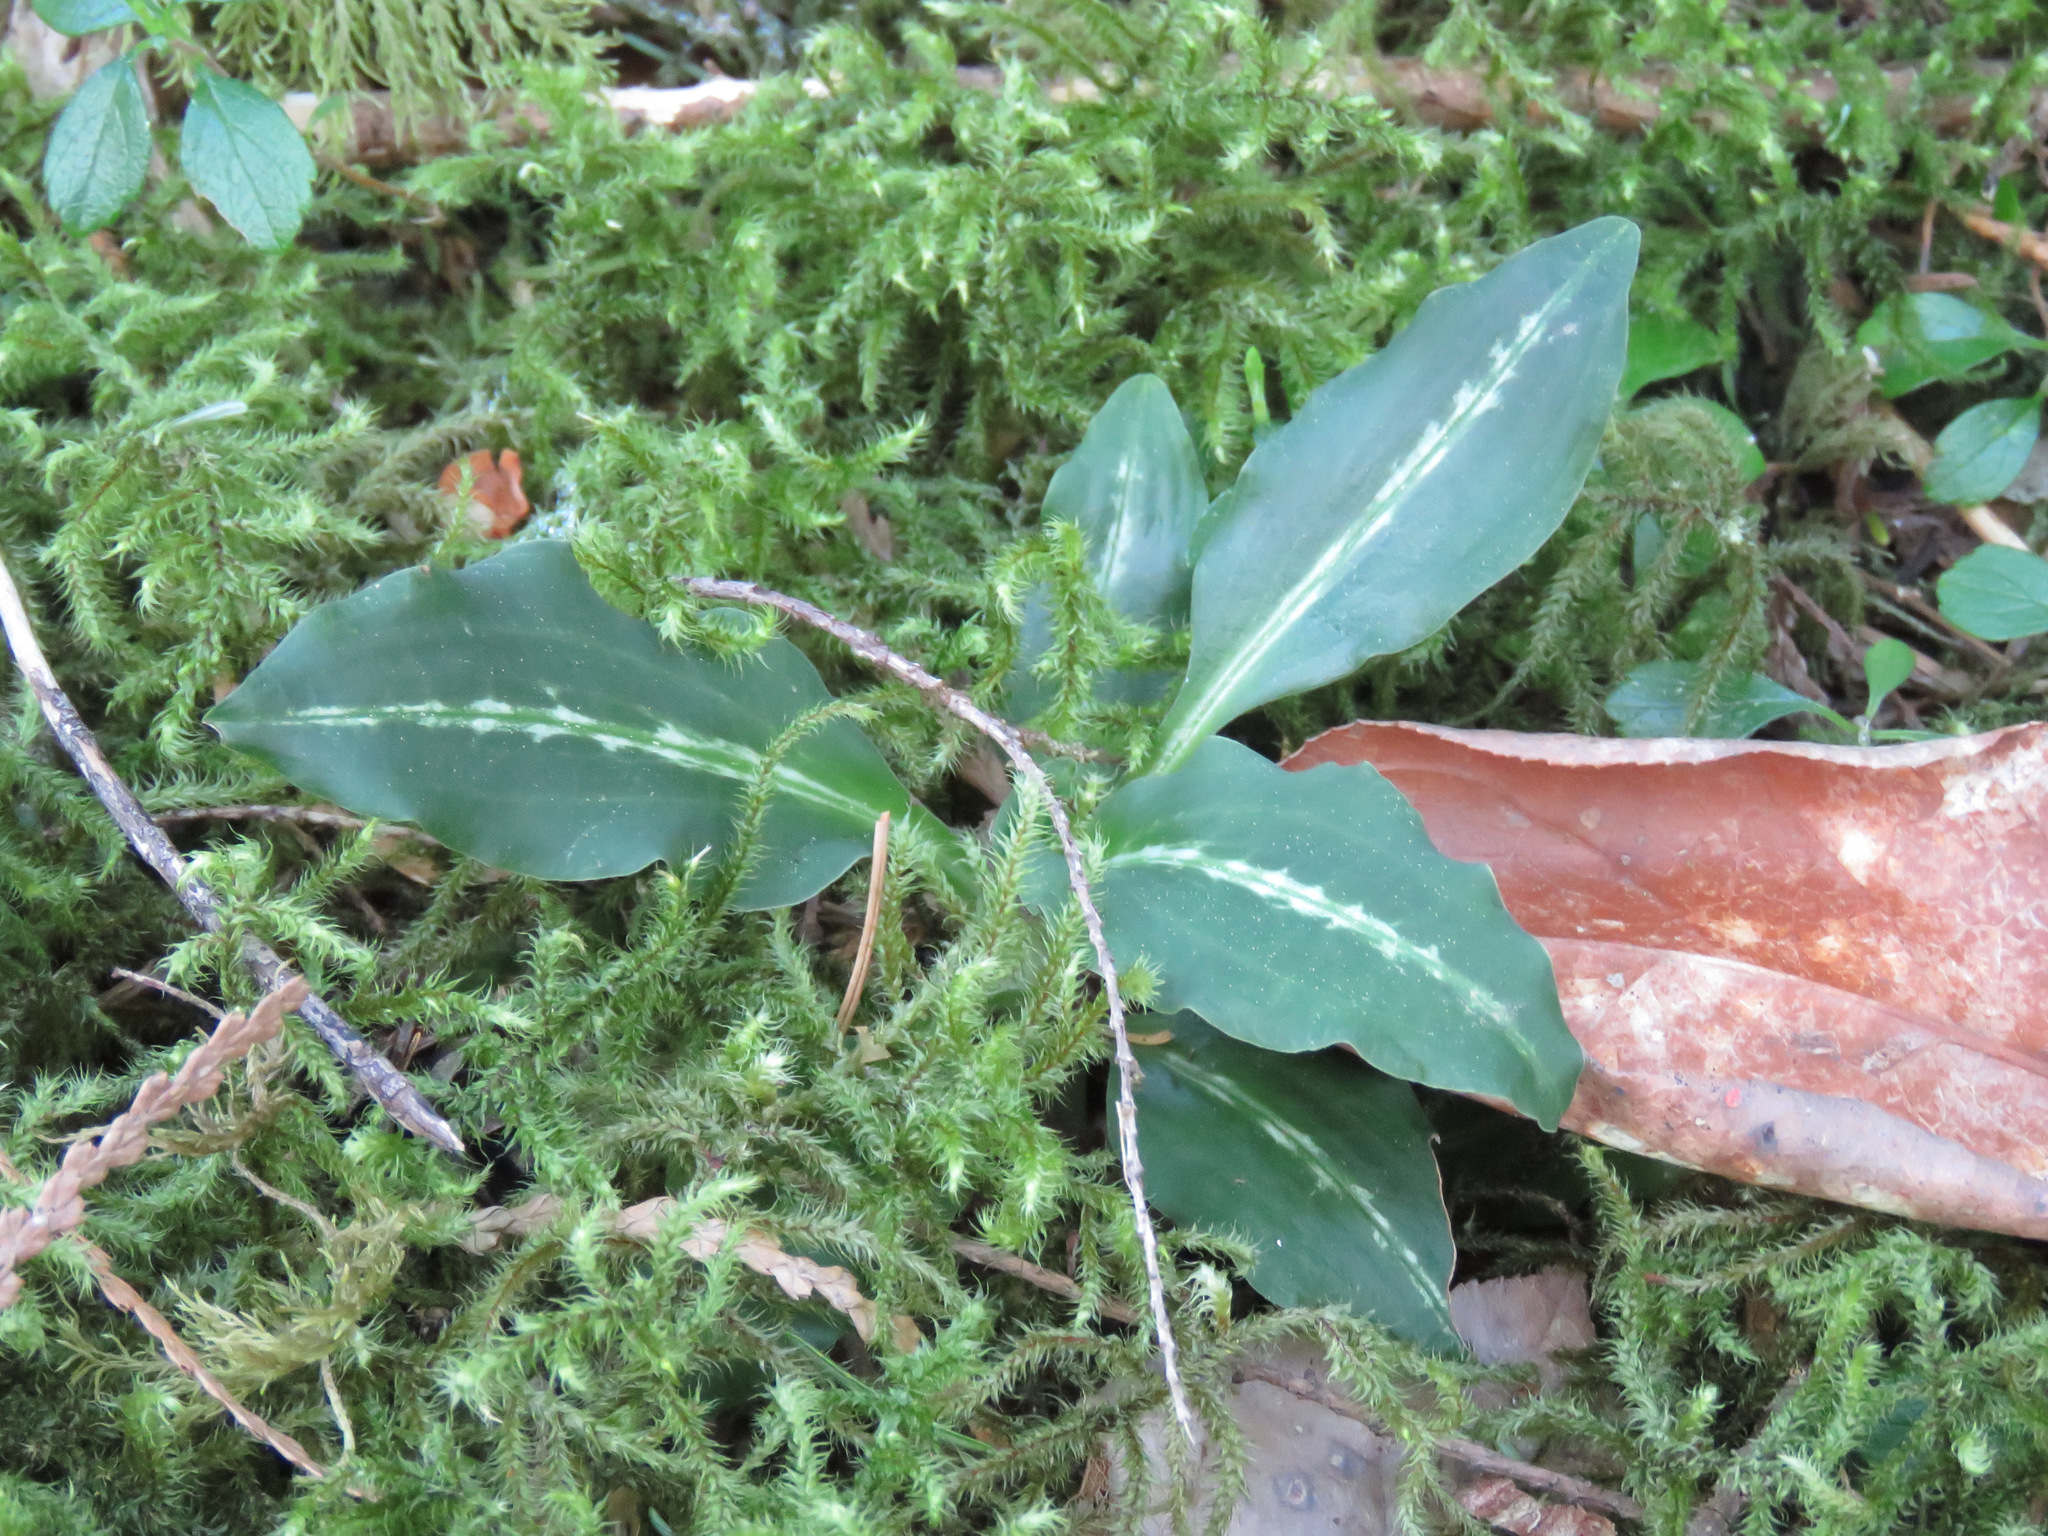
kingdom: Plantae
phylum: Tracheophyta
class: Liliopsida
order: Asparagales
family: Orchidaceae
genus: Goodyera
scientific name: Goodyera oblongifolia
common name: Giant rattlesnake-plantain
